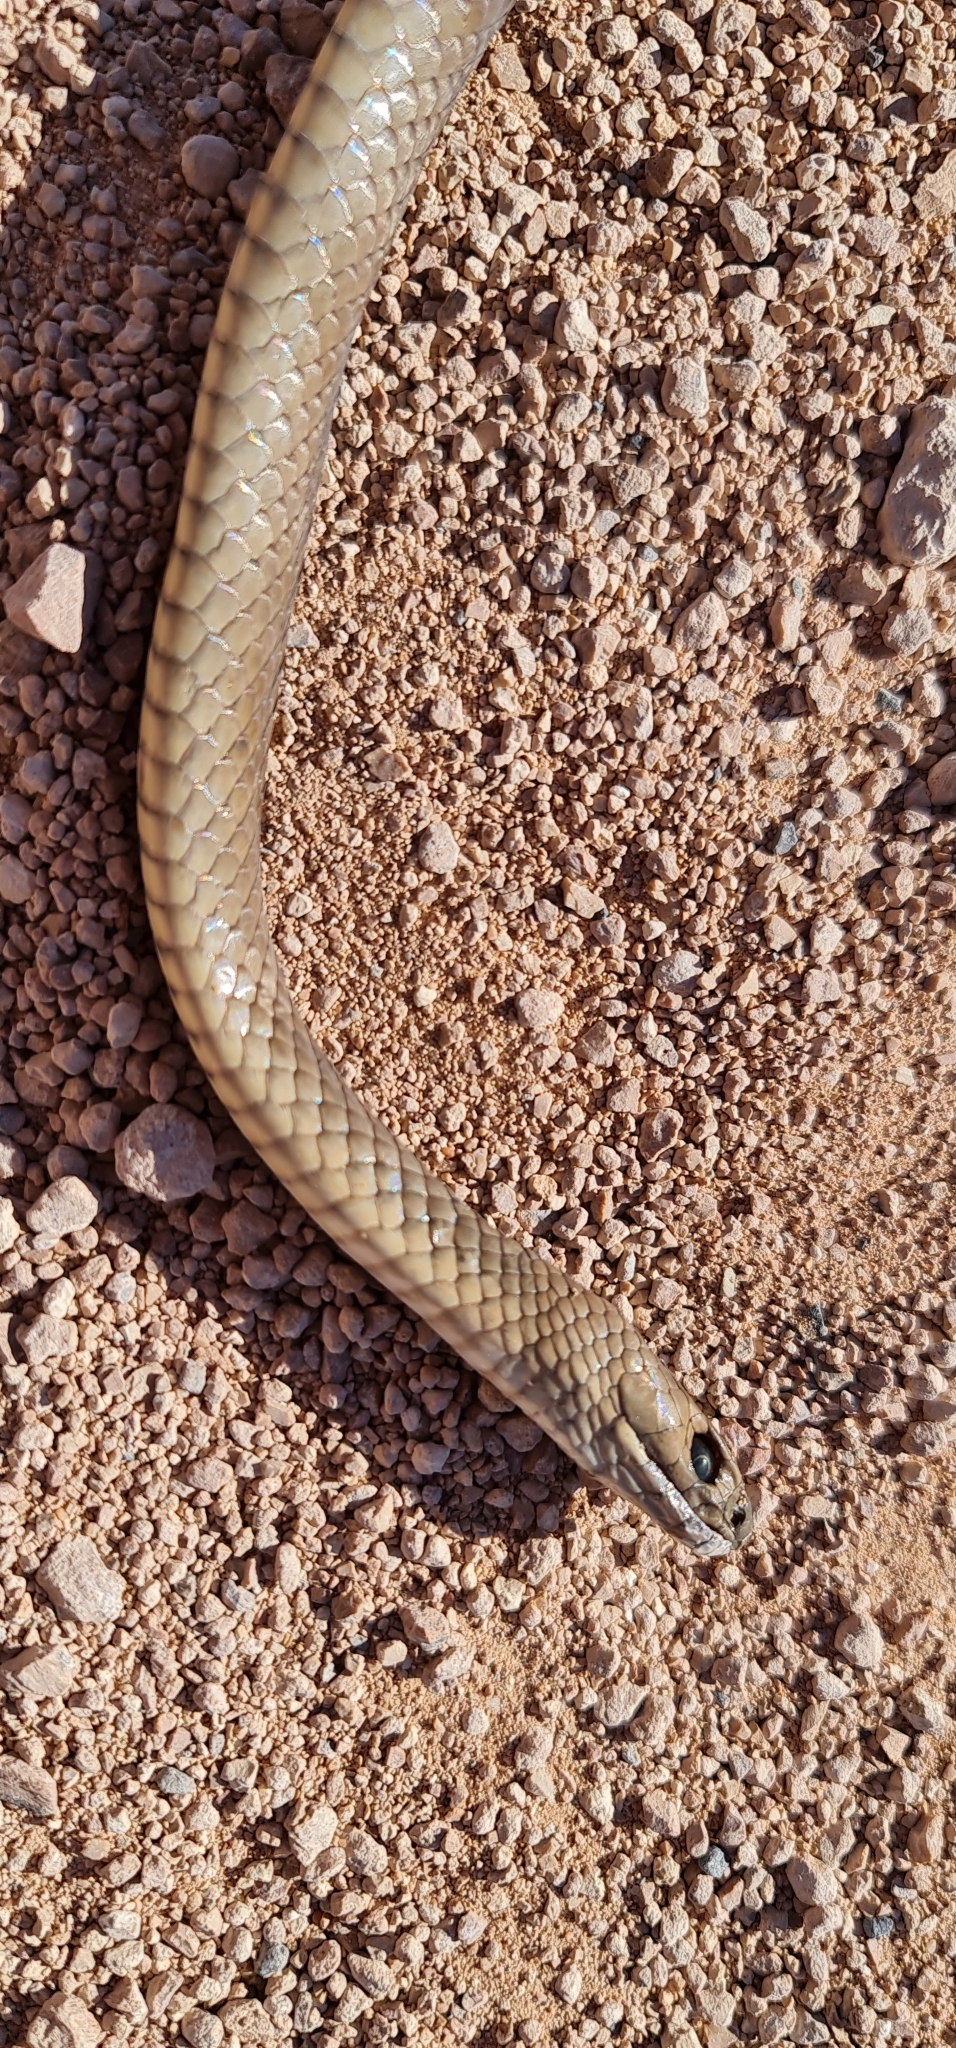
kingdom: Animalia
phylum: Chordata
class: Squamata
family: Elapidae
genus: Pseudonaja
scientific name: Pseudonaja textilis
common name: Eastern brown snake
